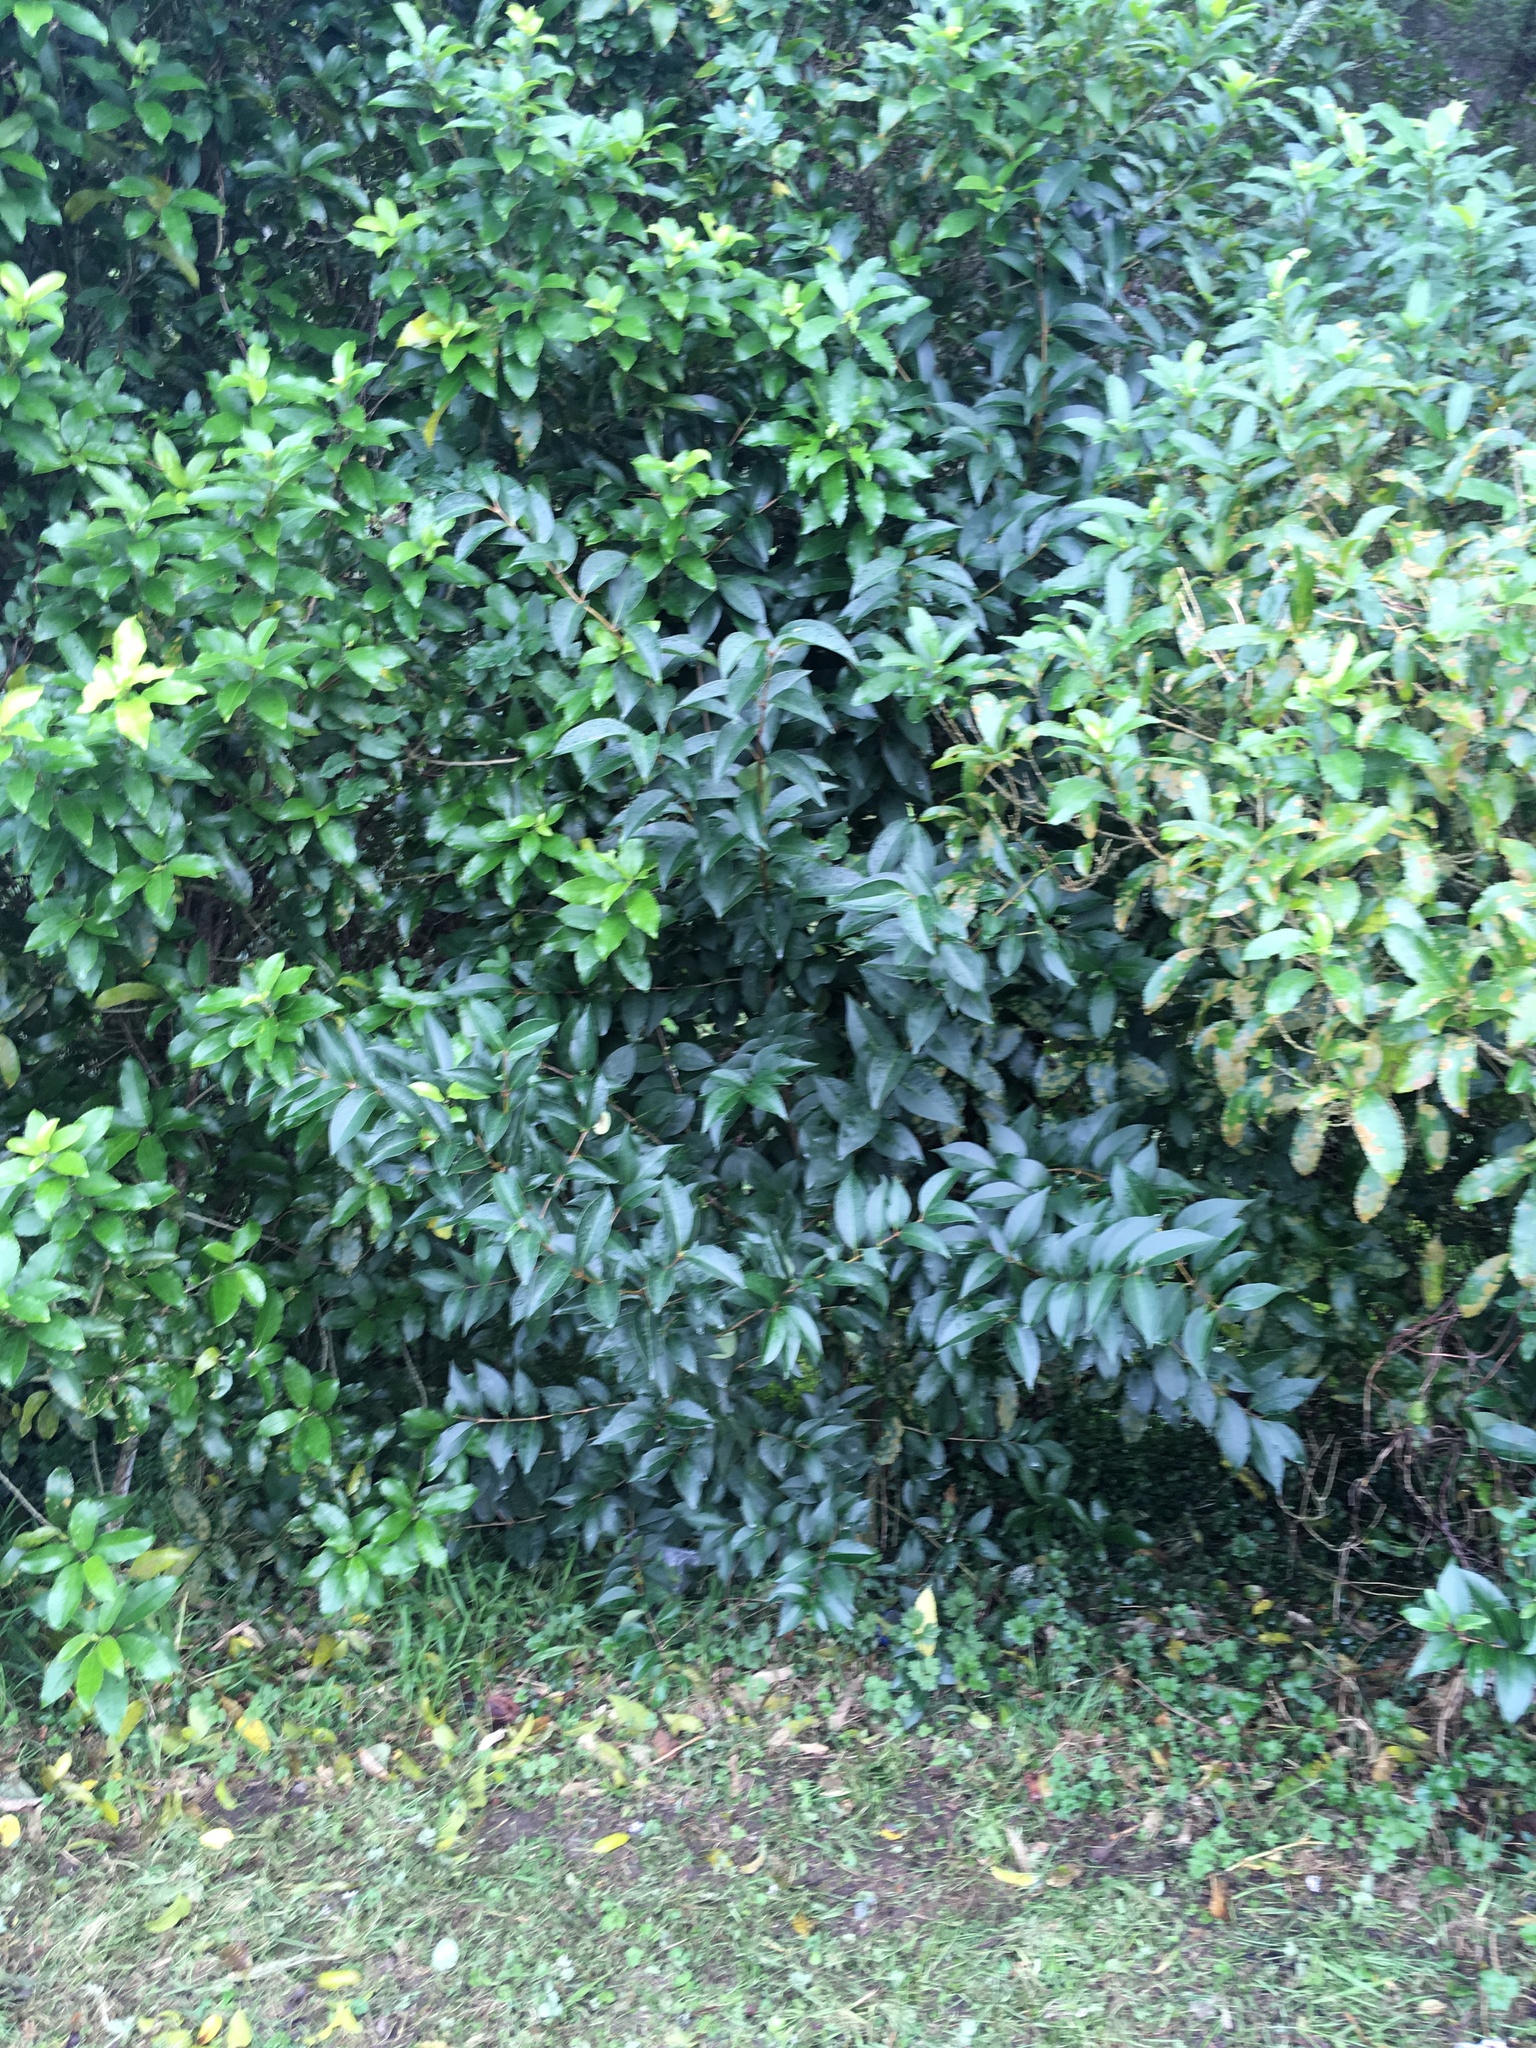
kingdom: Plantae
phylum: Tracheophyta
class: Magnoliopsida
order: Lamiales
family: Oleaceae
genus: Ligustrum
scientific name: Ligustrum lucidum
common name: Glossy privet
